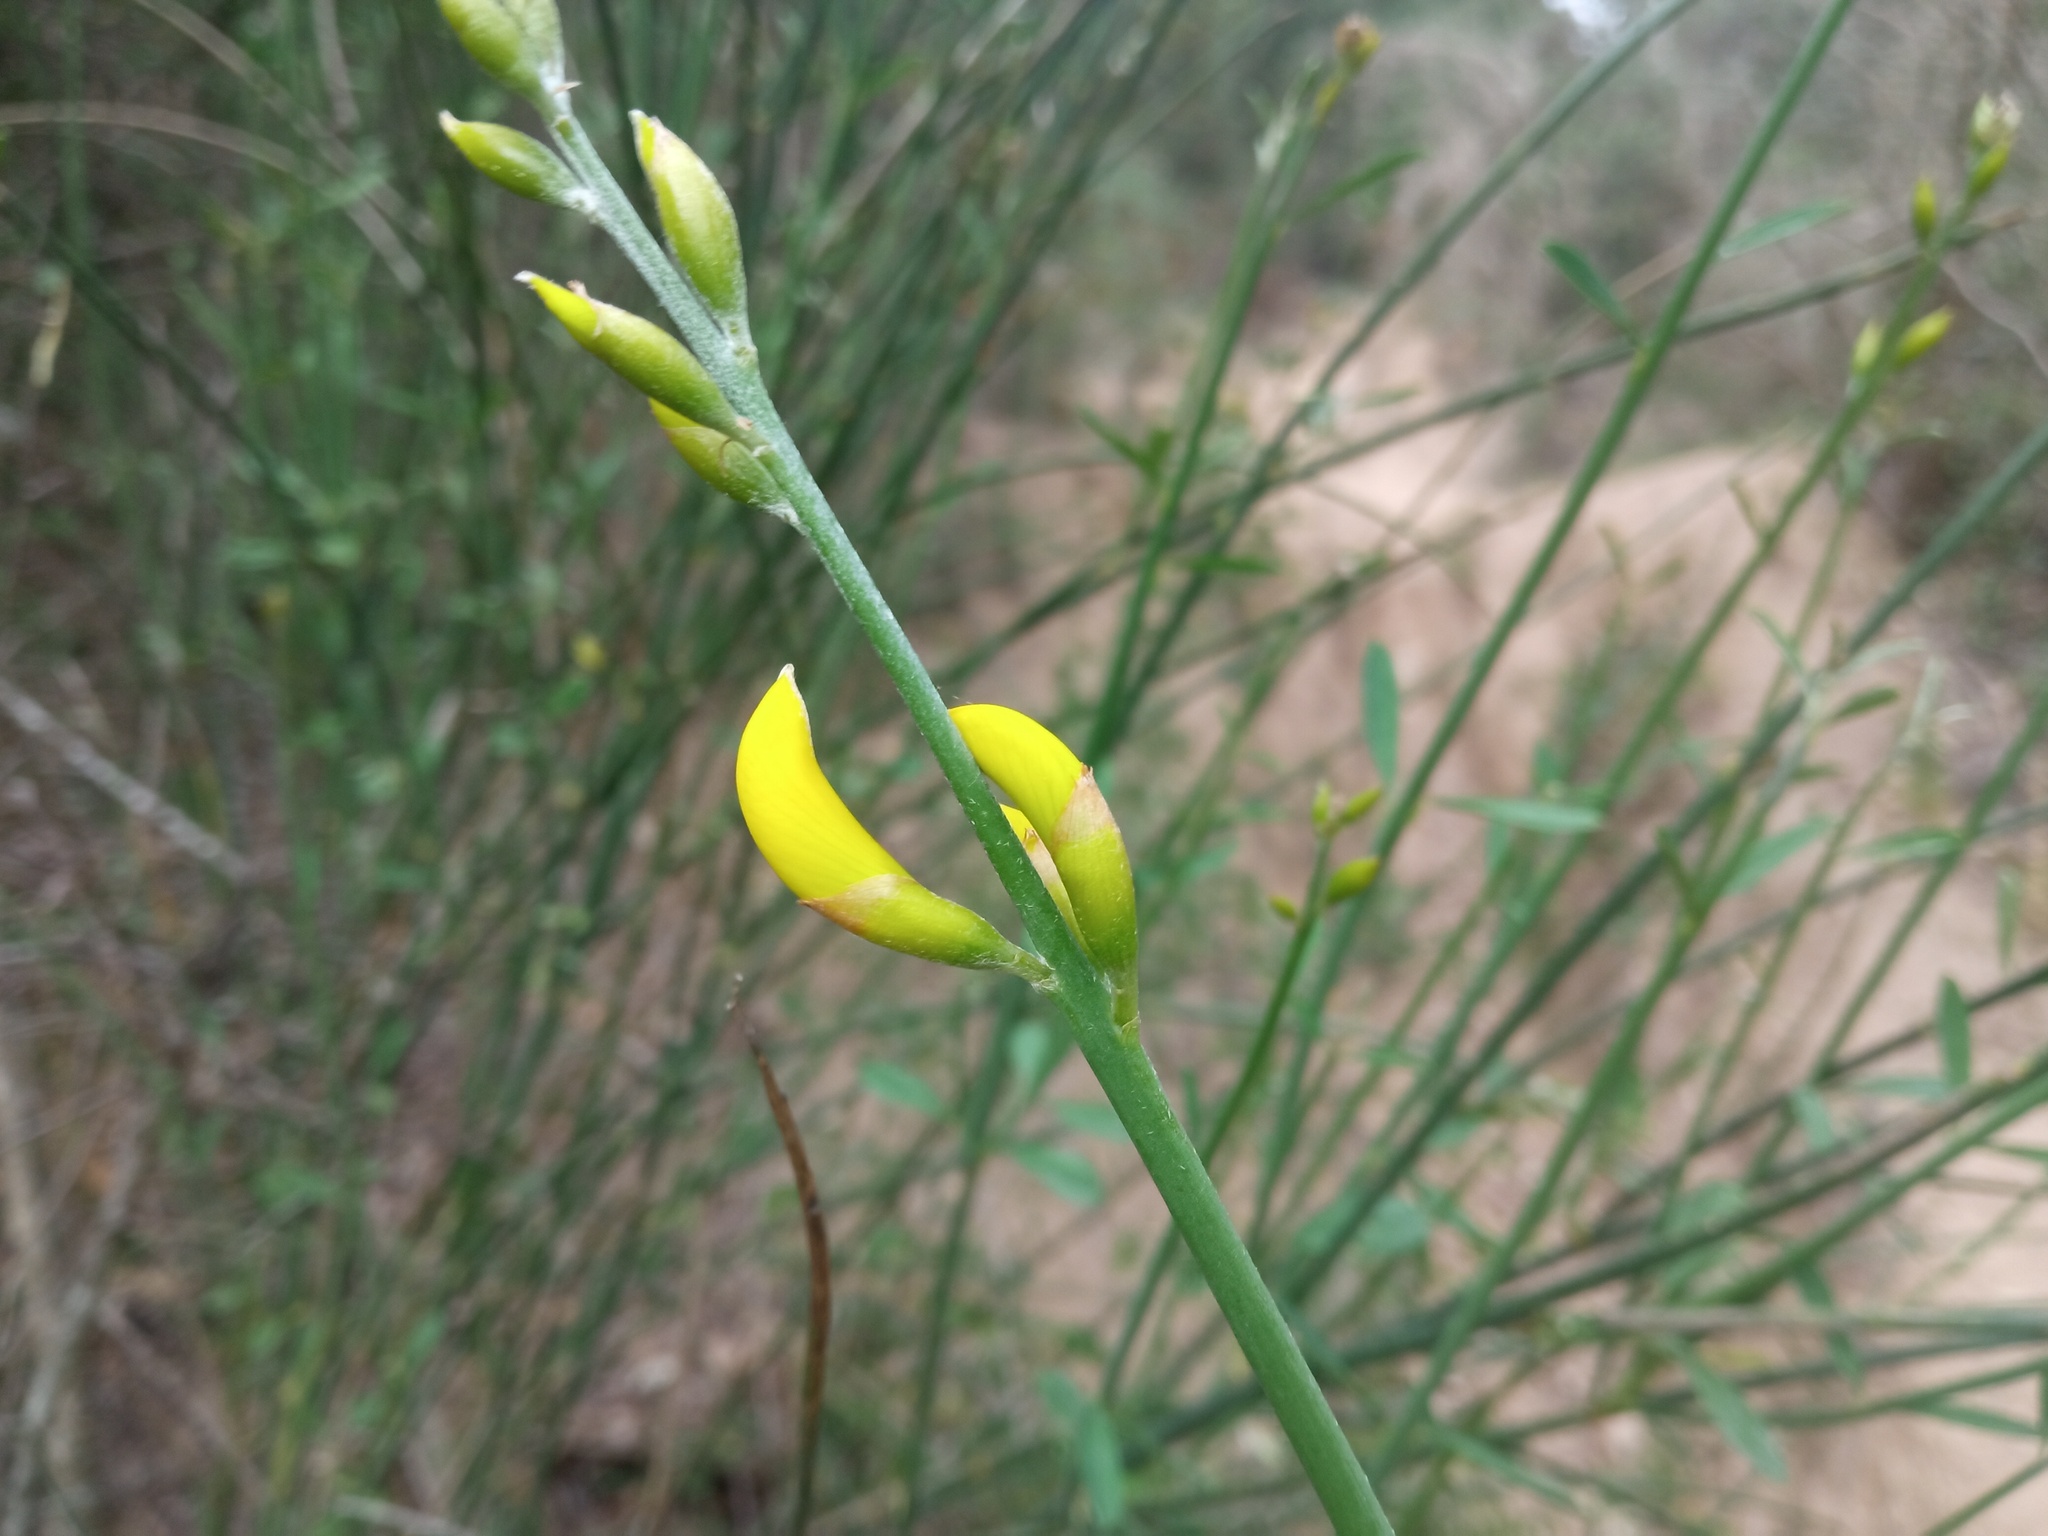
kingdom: Plantae
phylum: Tracheophyta
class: Magnoliopsida
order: Fabales
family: Fabaceae
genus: Spartium
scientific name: Spartium junceum
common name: Spanish broom
